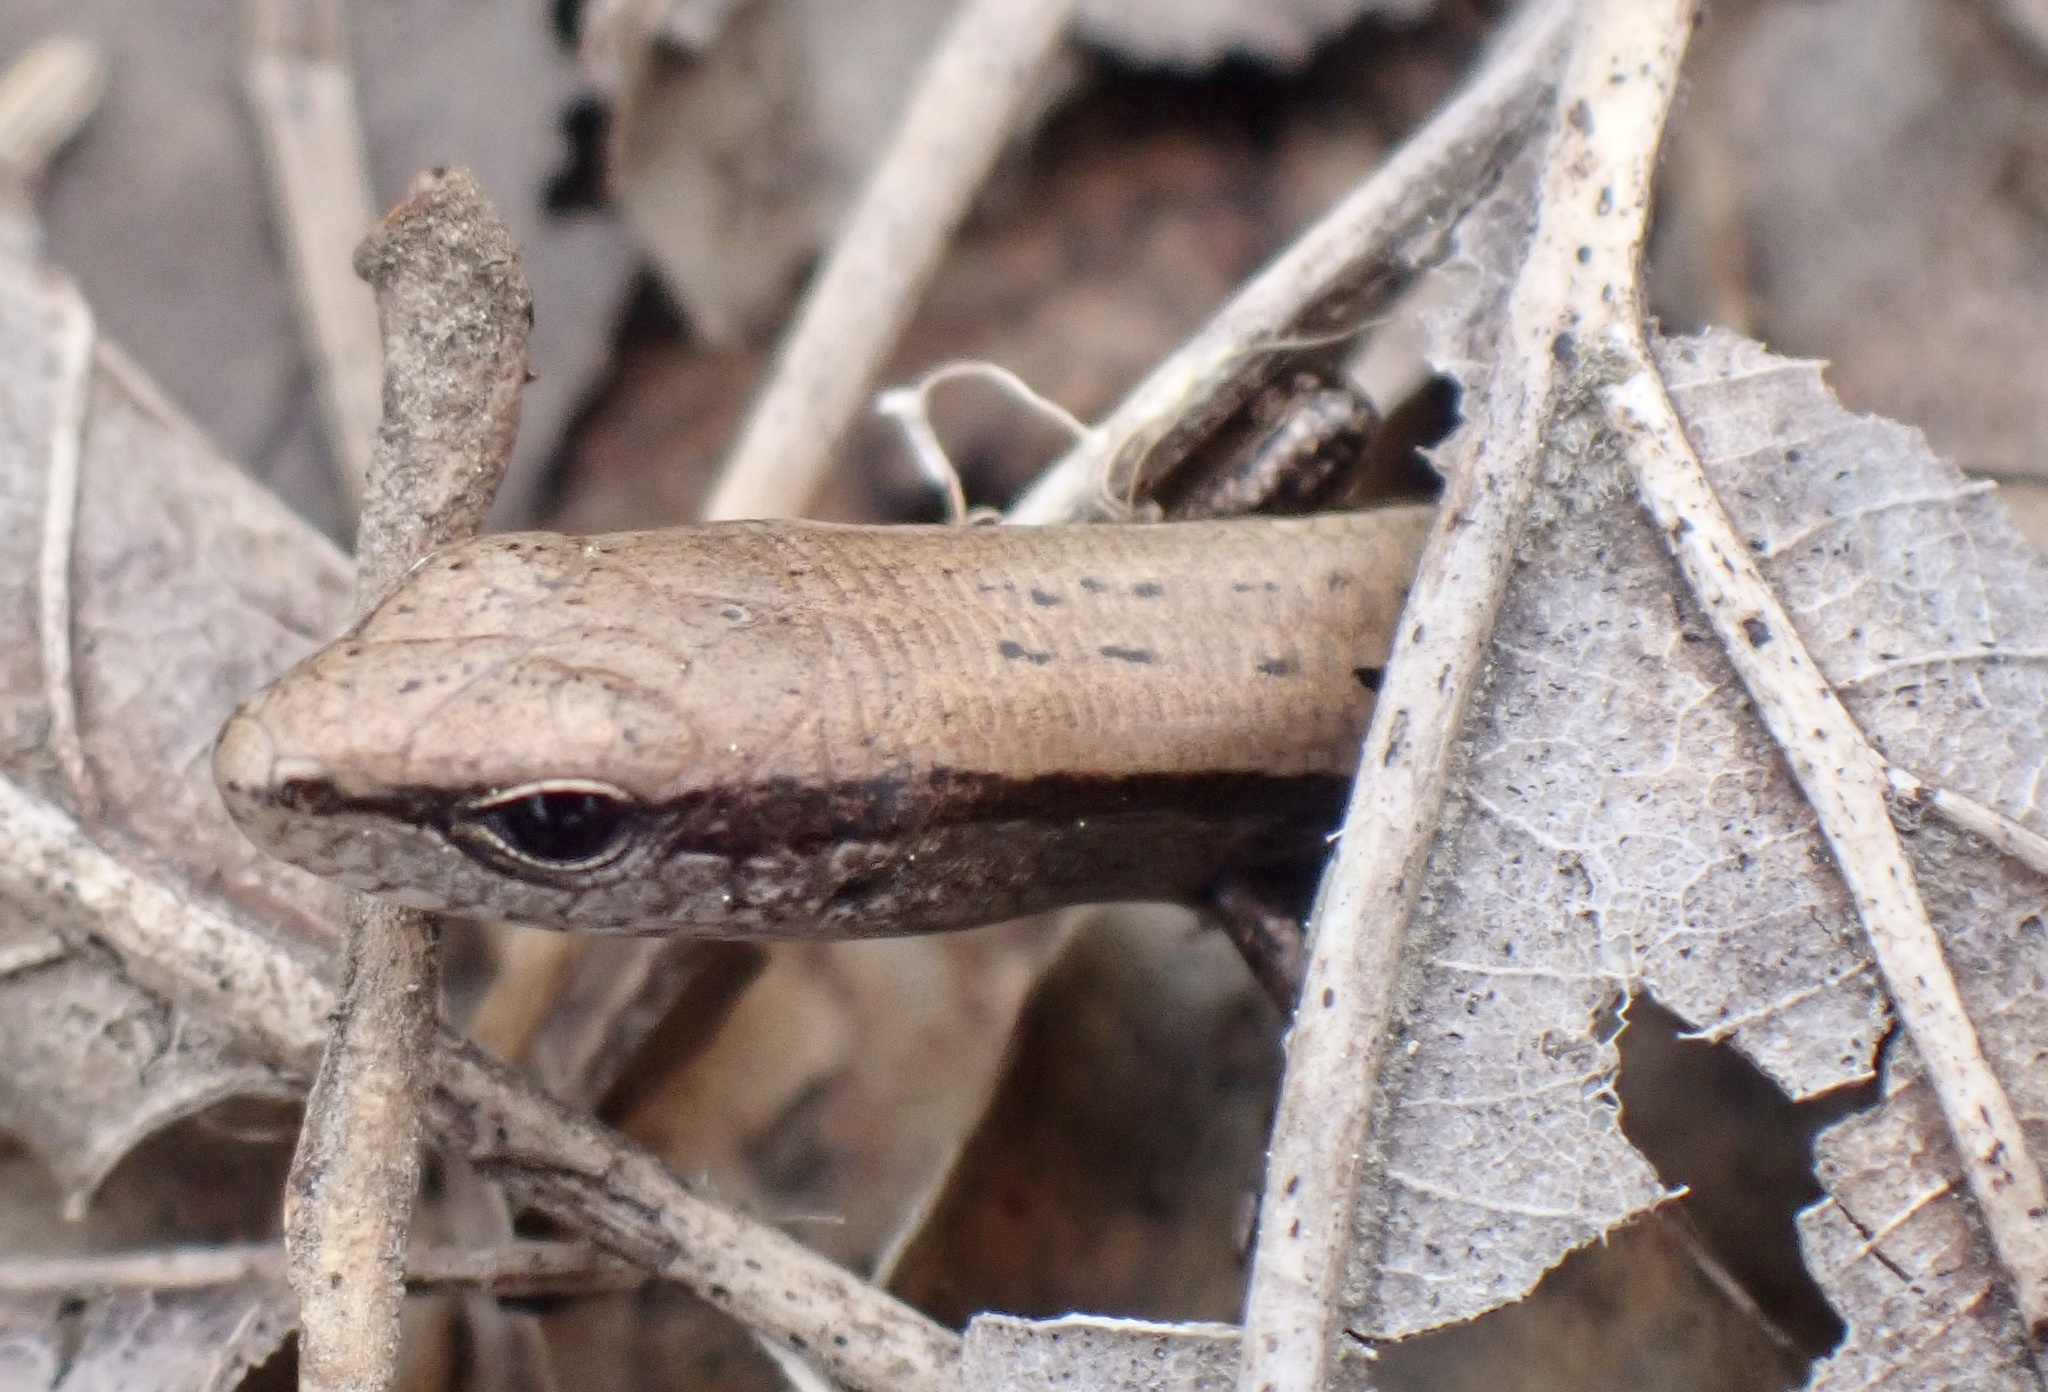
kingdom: Animalia
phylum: Chordata
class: Squamata
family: Scincidae
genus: Scincella
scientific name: Scincella lateralis
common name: Ground skink
